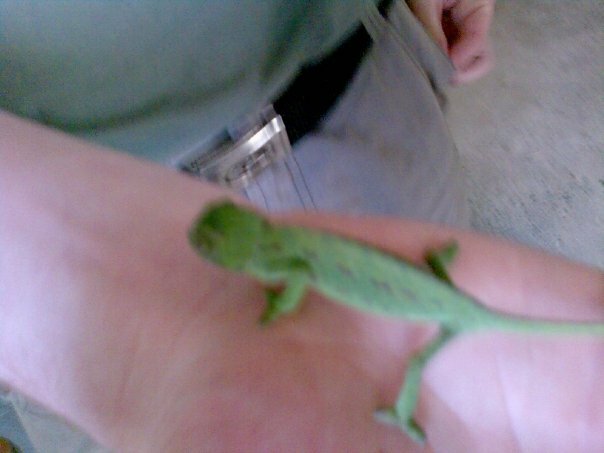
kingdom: Animalia
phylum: Chordata
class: Squamata
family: Chamaeleonidae
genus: Chamaeleo
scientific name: Chamaeleo chamaeleon
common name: Mediterranean chameleon
